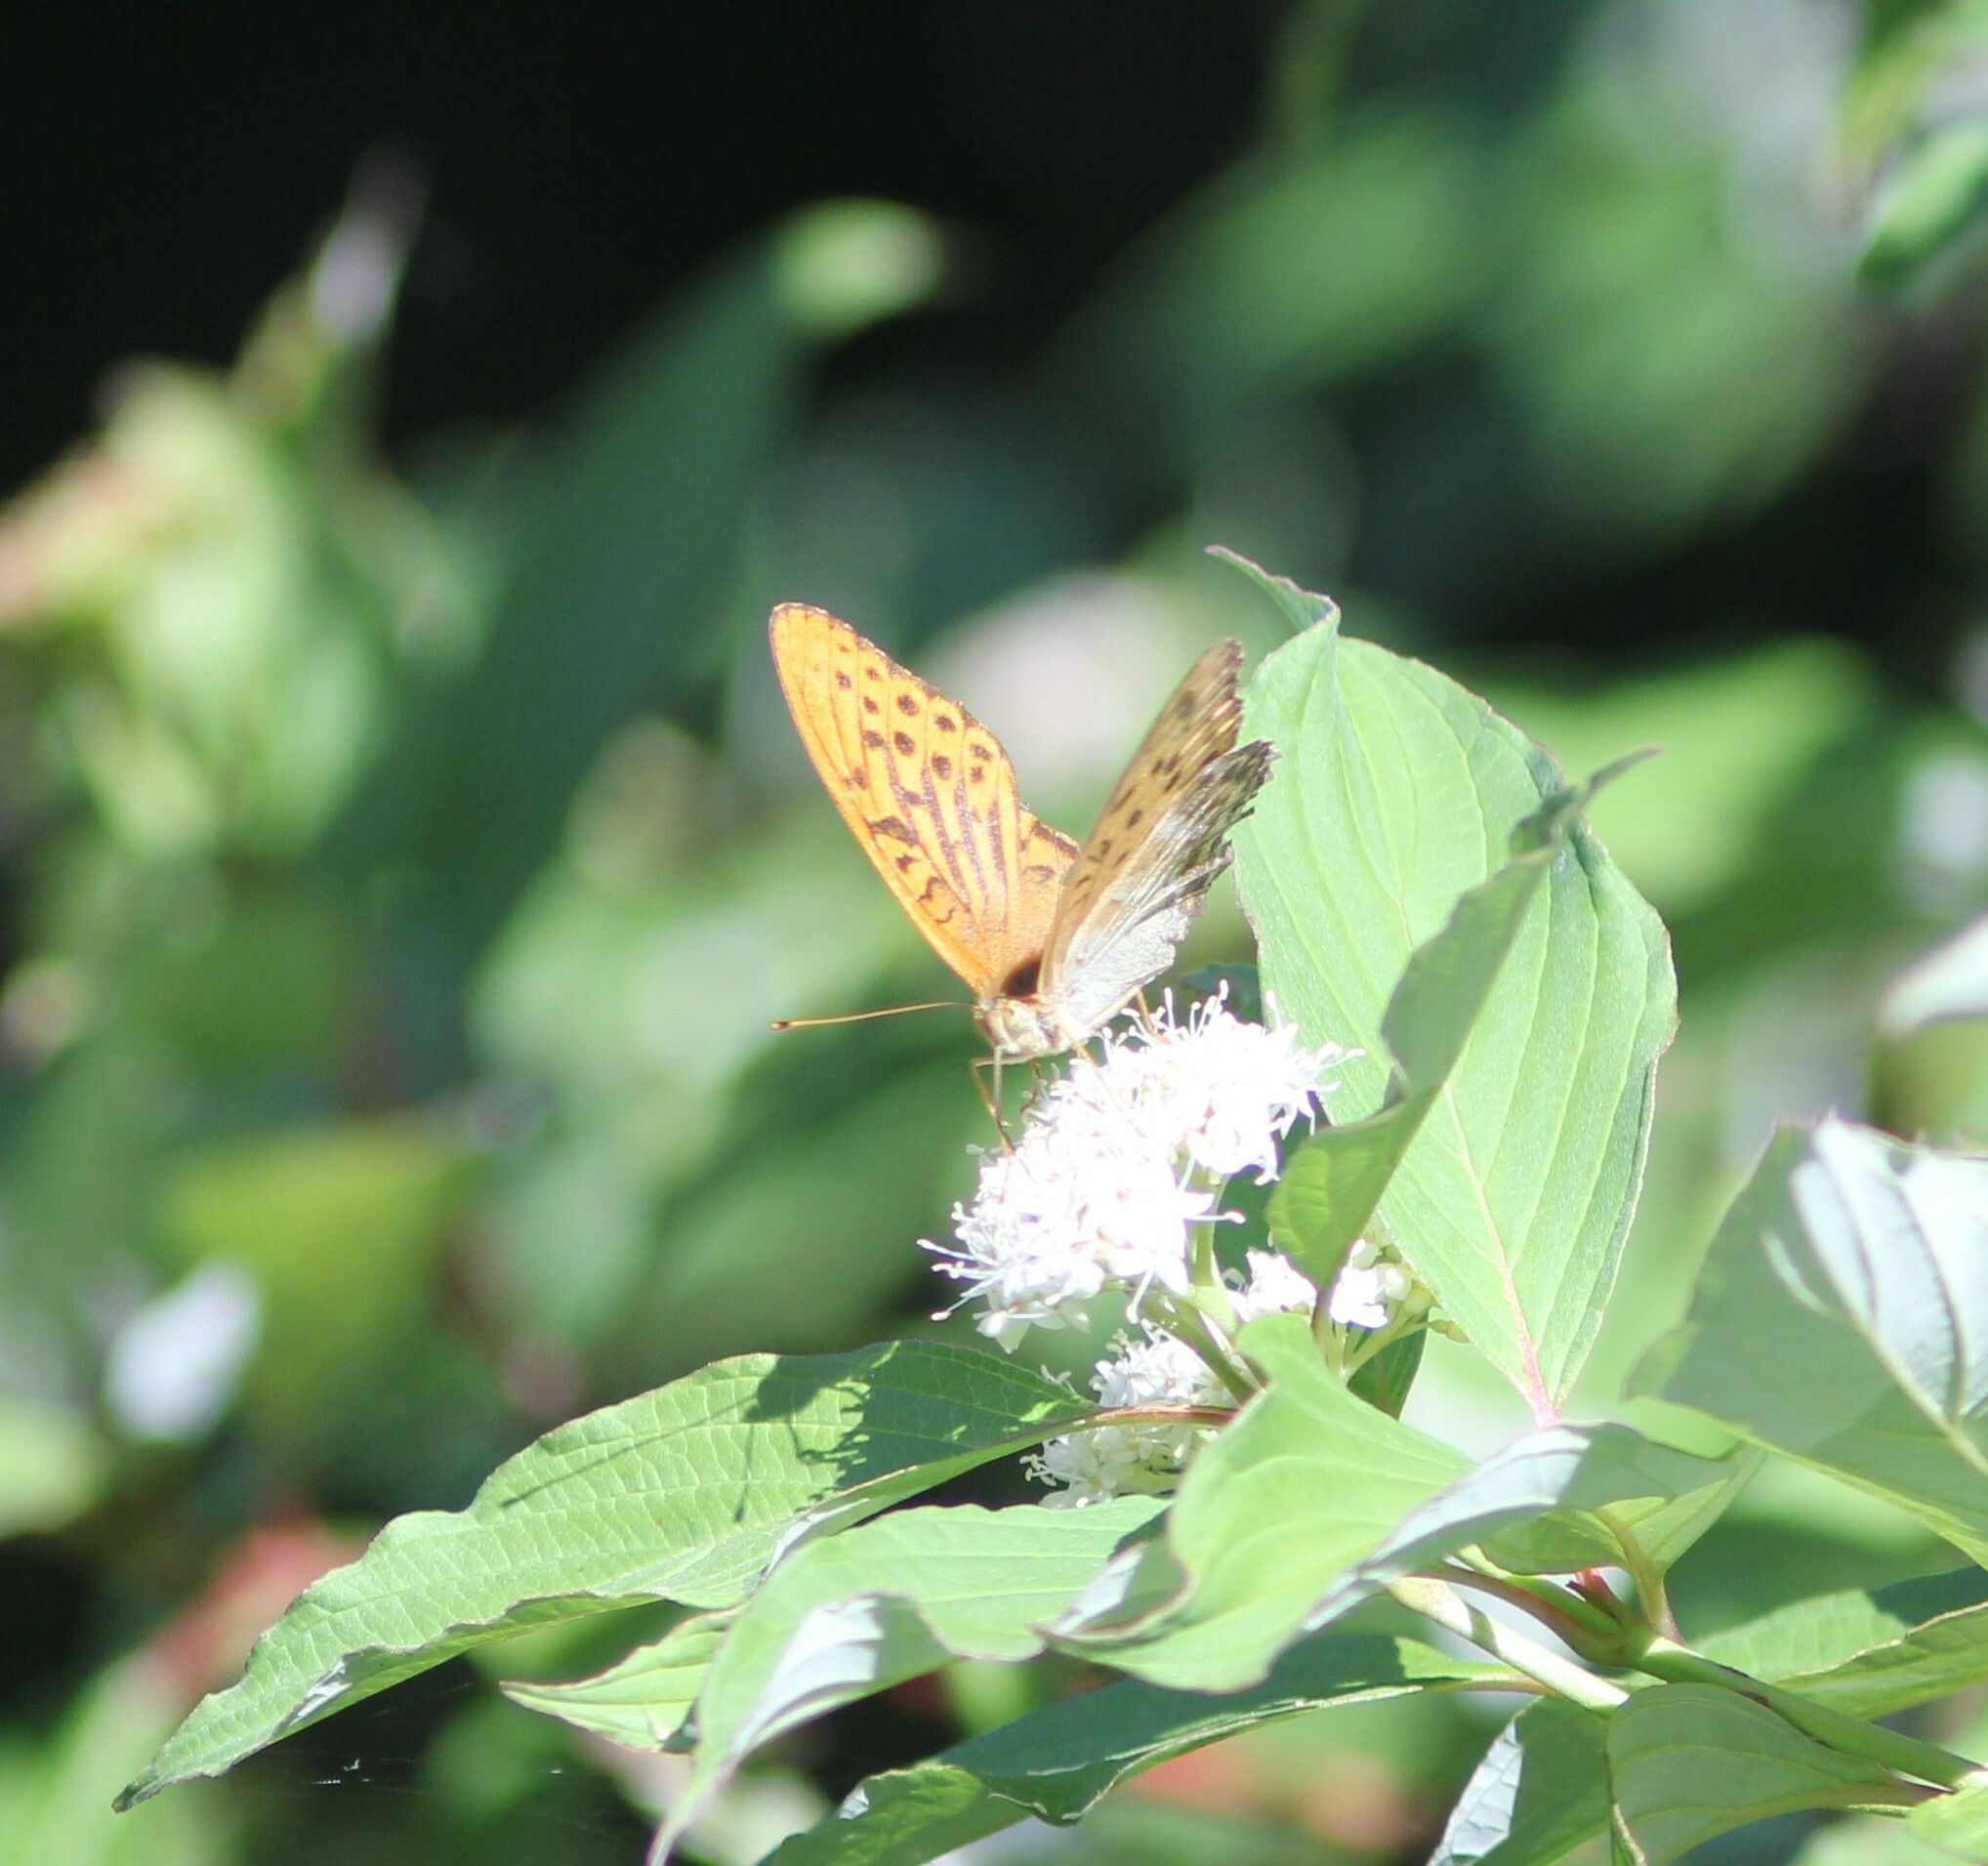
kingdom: Animalia
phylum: Arthropoda
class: Insecta
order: Lepidoptera
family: Nymphalidae
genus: Argynnis
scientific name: Argynnis paphia
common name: Silver-washed fritillary
